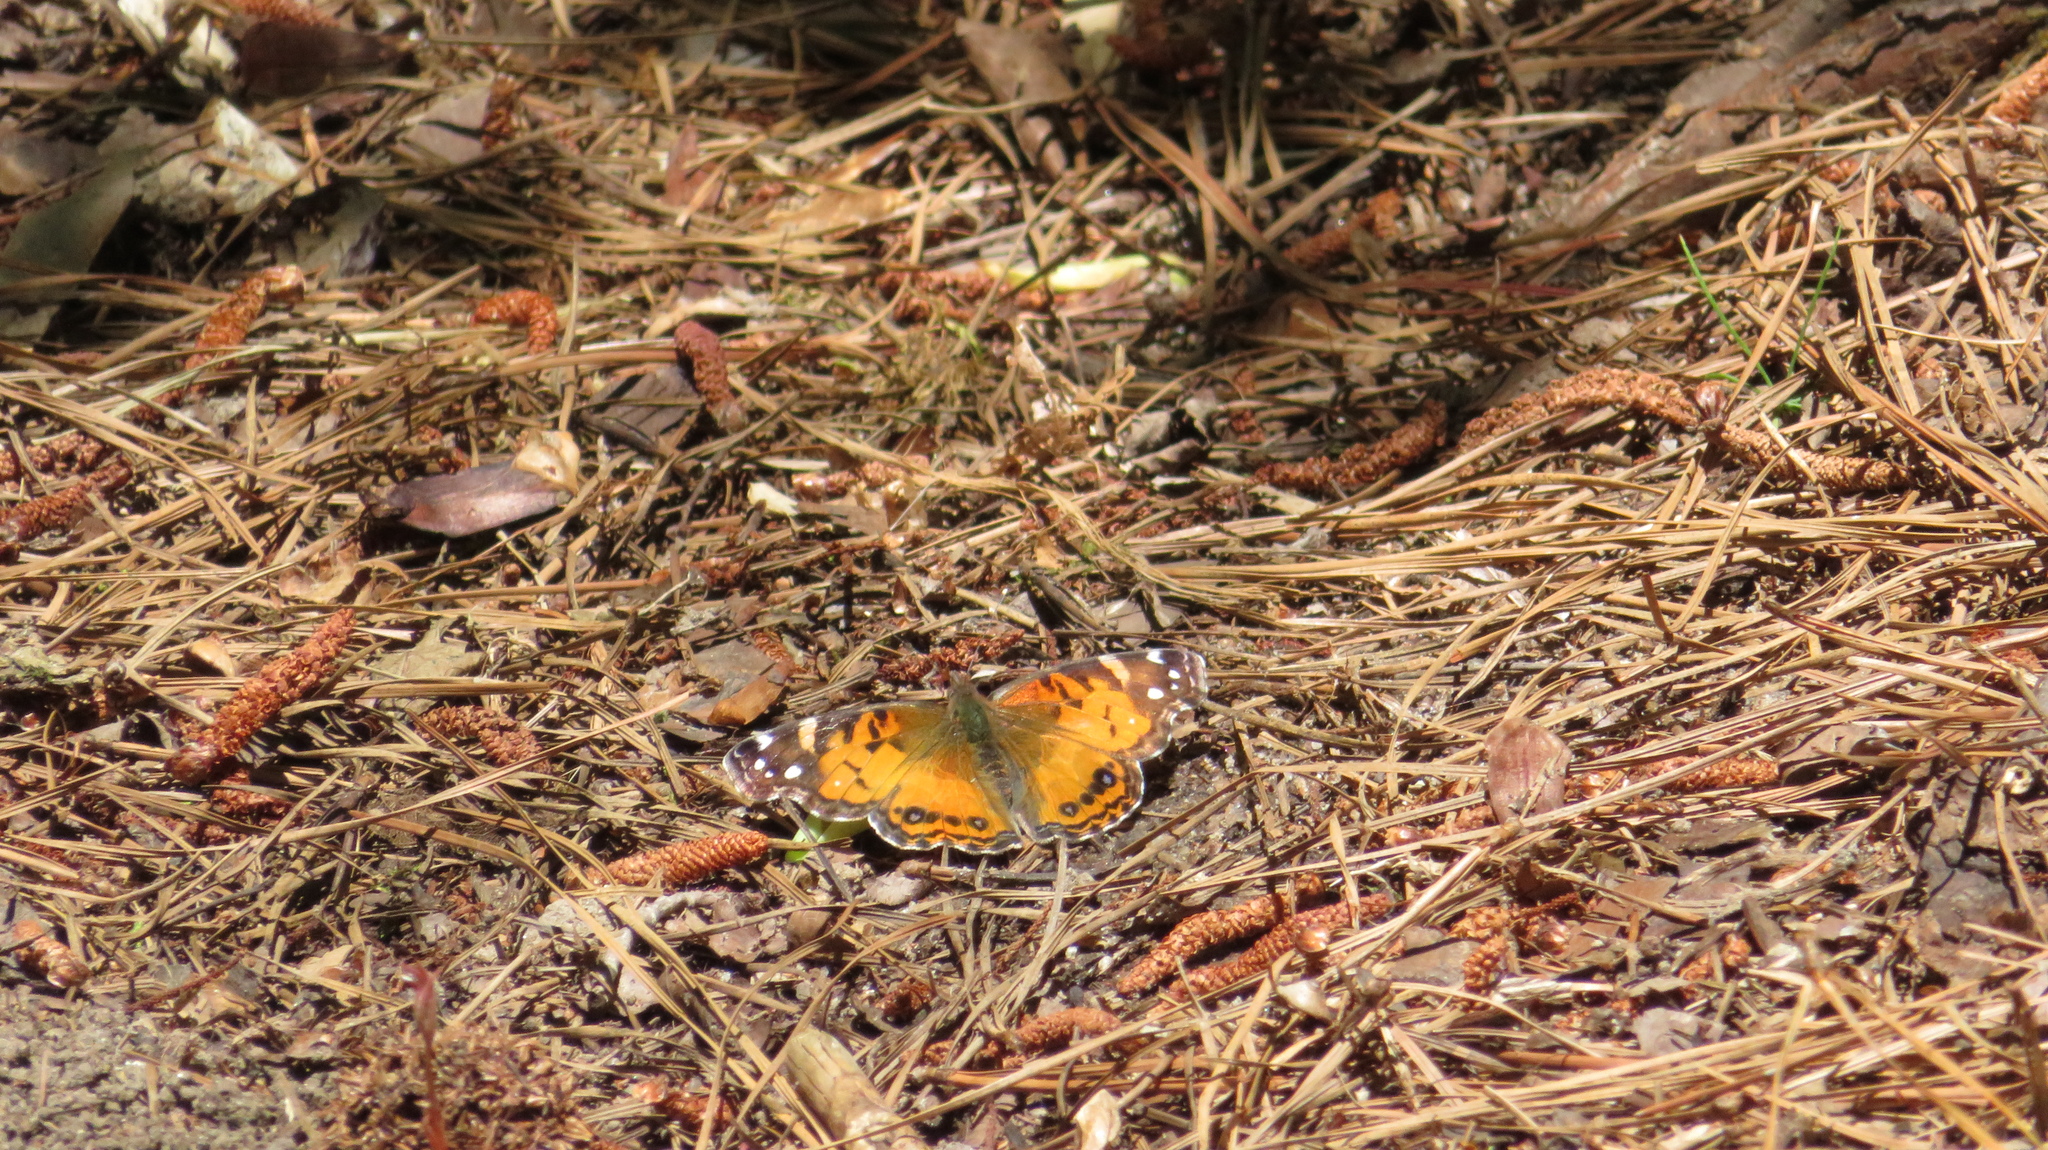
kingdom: Animalia
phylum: Arthropoda
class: Insecta
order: Lepidoptera
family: Nymphalidae
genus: Vanessa
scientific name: Vanessa virginiensis
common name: American lady
